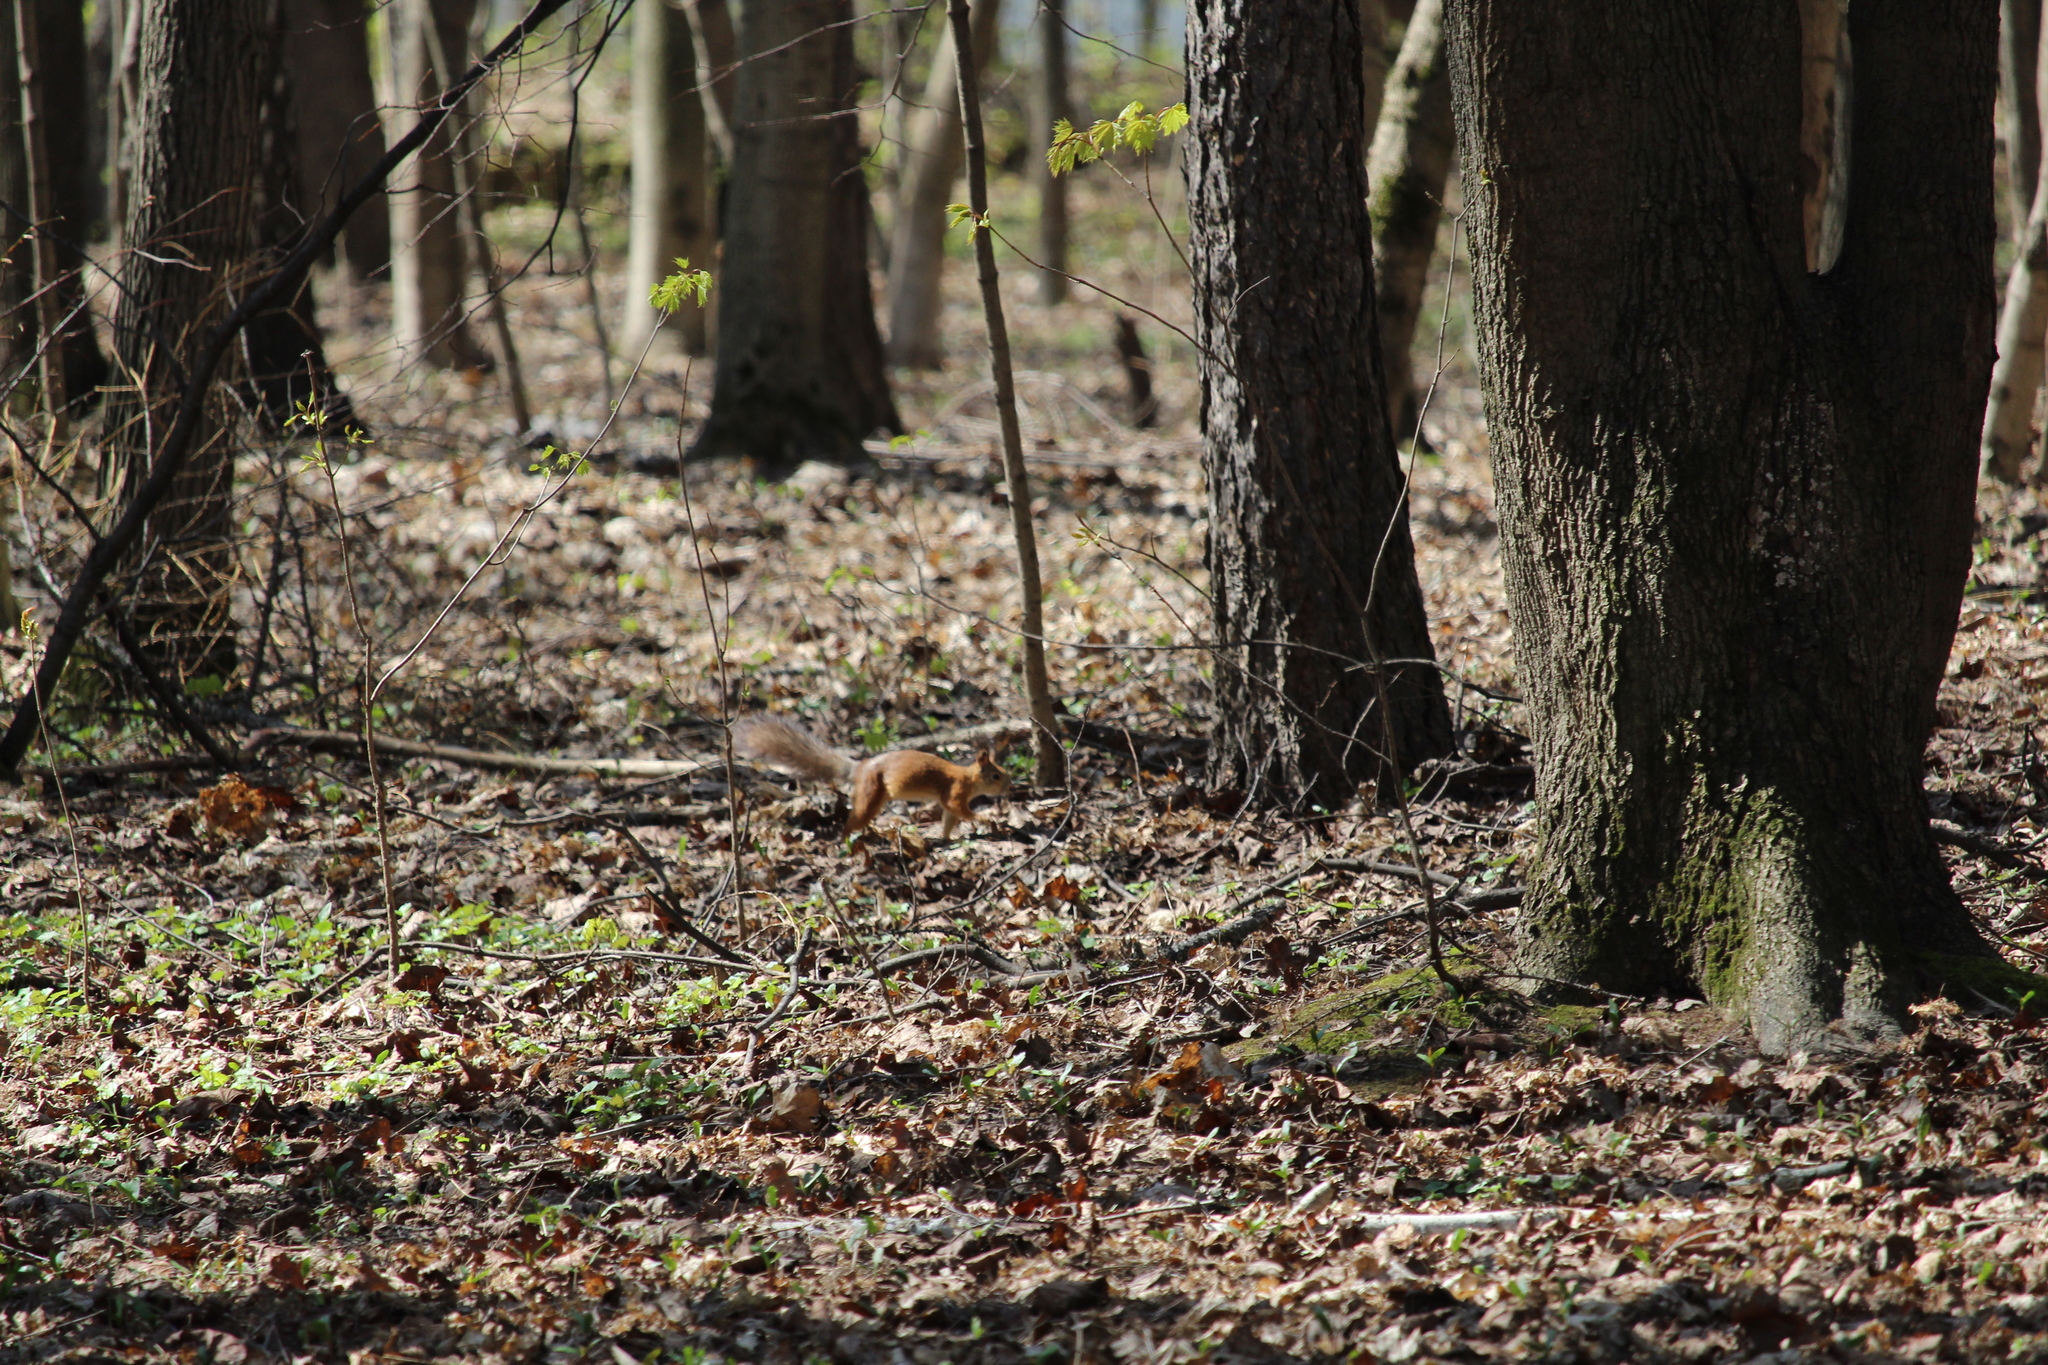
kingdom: Animalia
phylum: Chordata
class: Mammalia
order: Rodentia
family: Sciuridae
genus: Sciurus
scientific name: Sciurus vulgaris
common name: Eurasian red squirrel
